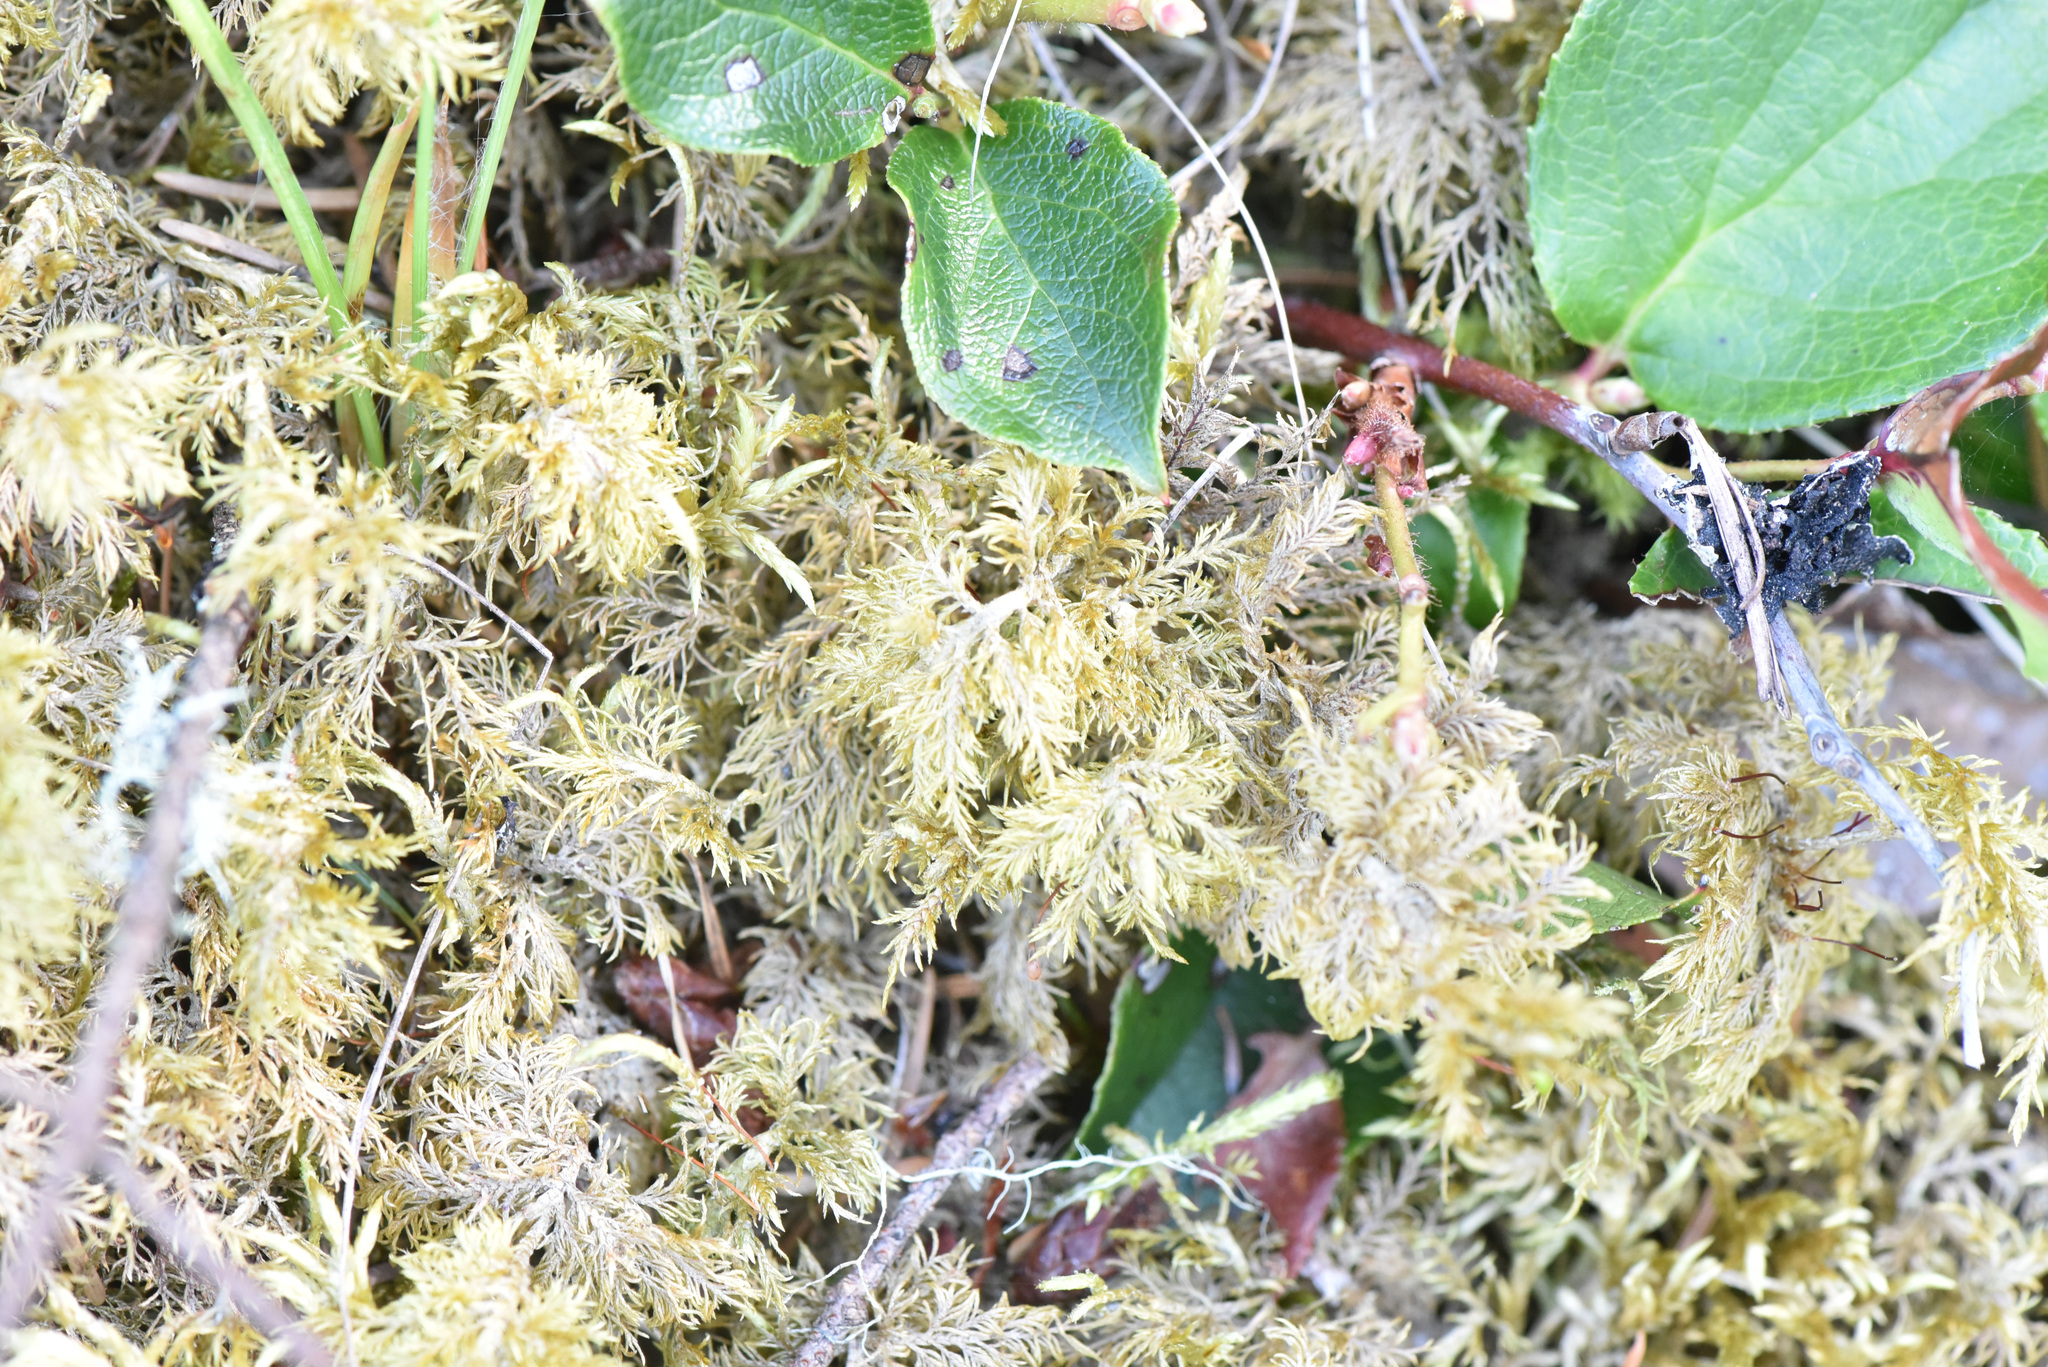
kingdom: Plantae
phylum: Tracheophyta
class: Magnoliopsida
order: Ericales
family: Ericaceae
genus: Gaultheria
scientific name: Gaultheria shallon
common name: Shallon
